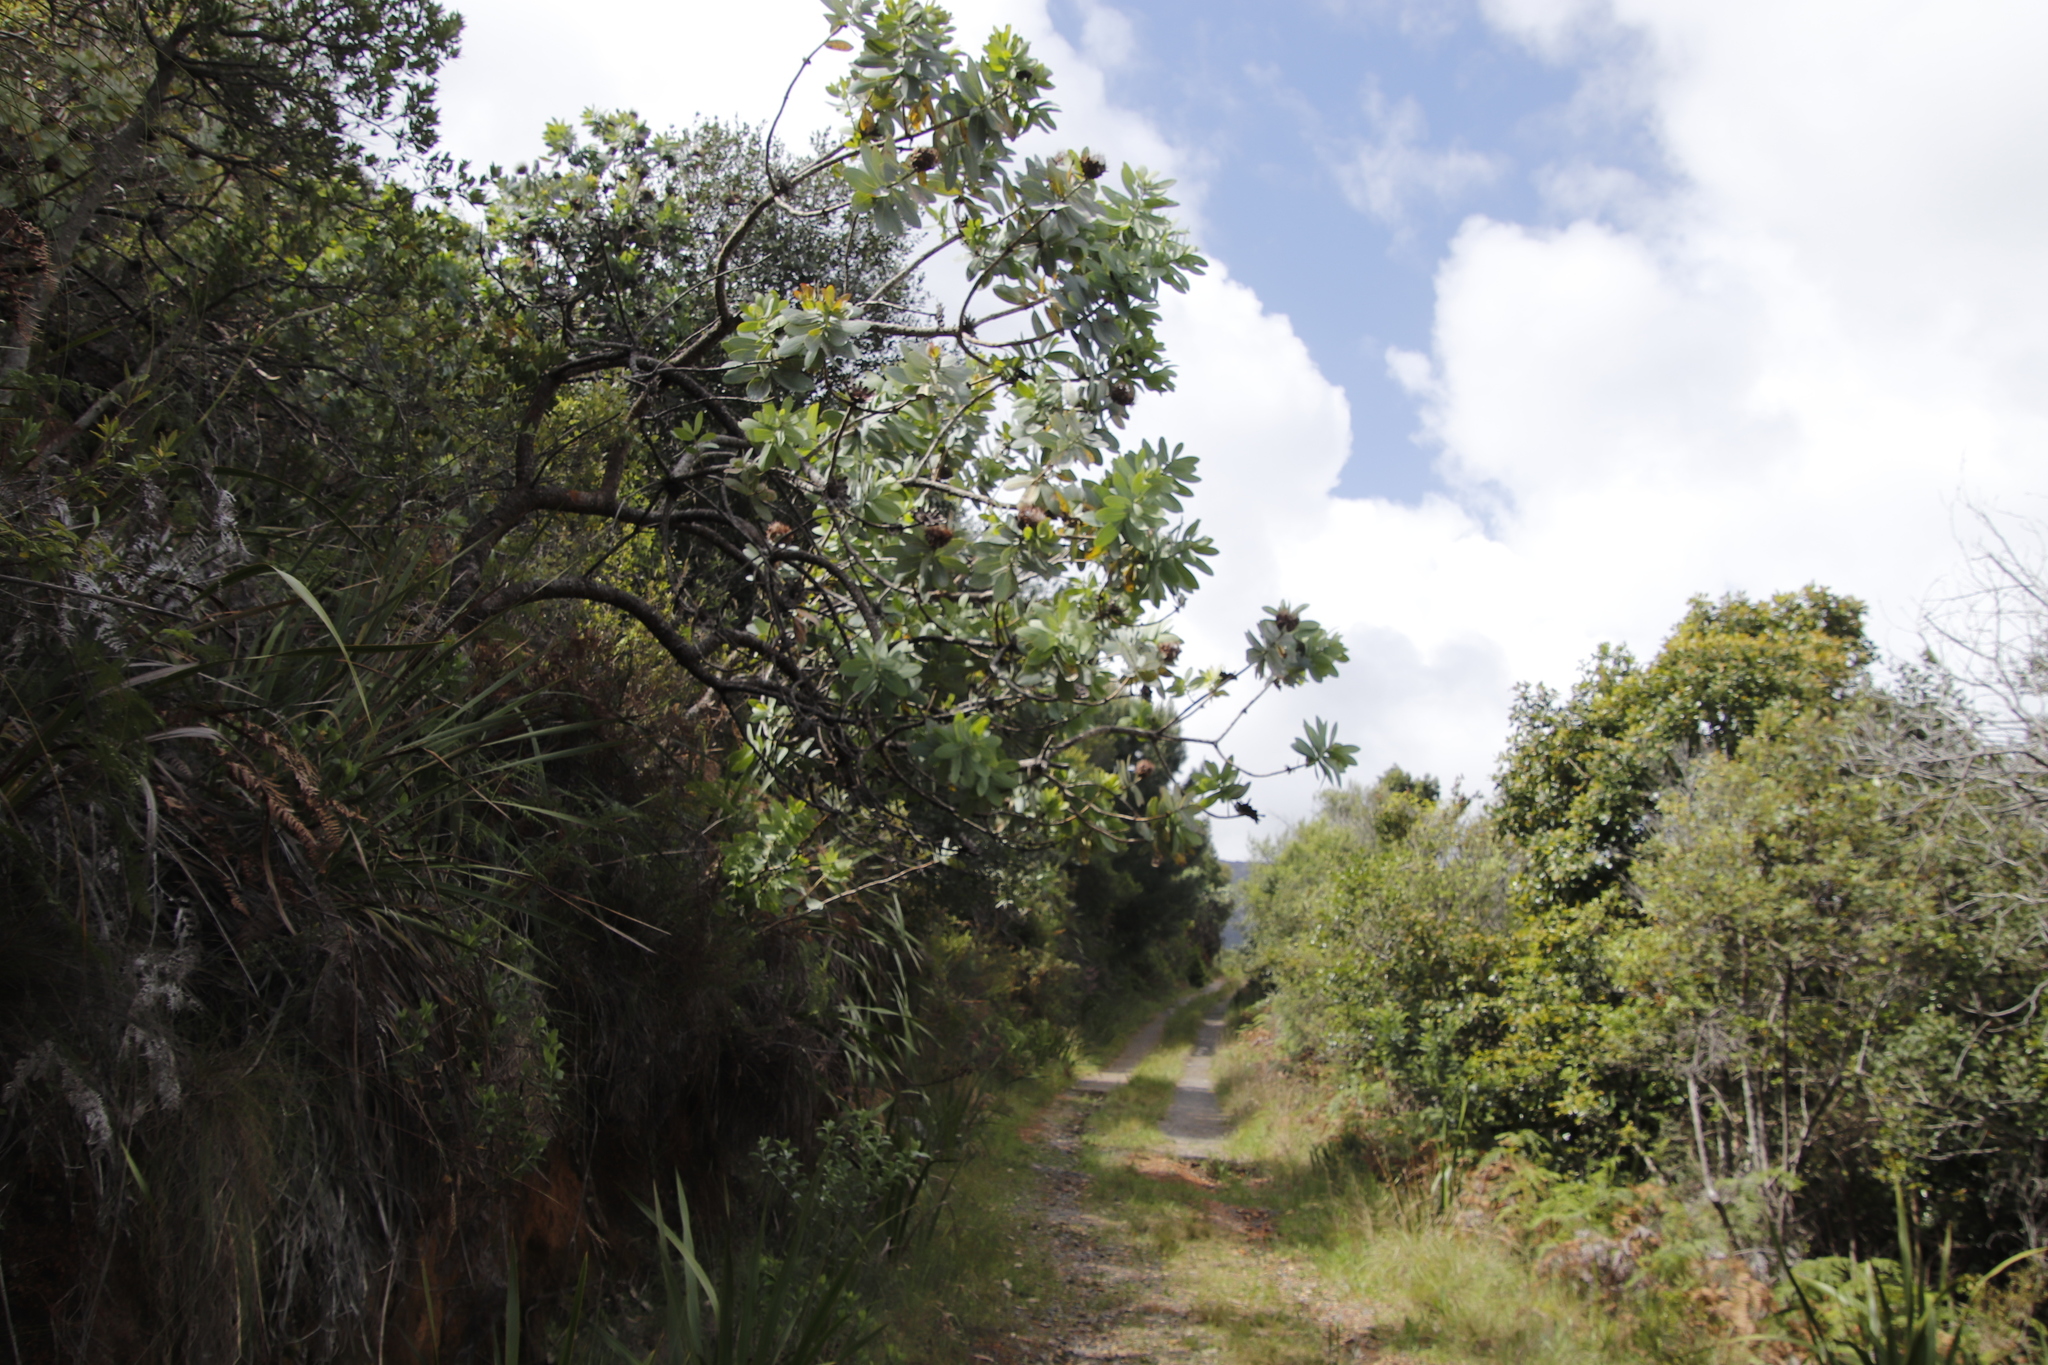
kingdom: Plantae
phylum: Tracheophyta
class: Magnoliopsida
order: Proteales
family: Proteaceae
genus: Protea
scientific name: Protea nitida
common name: Tree protea
